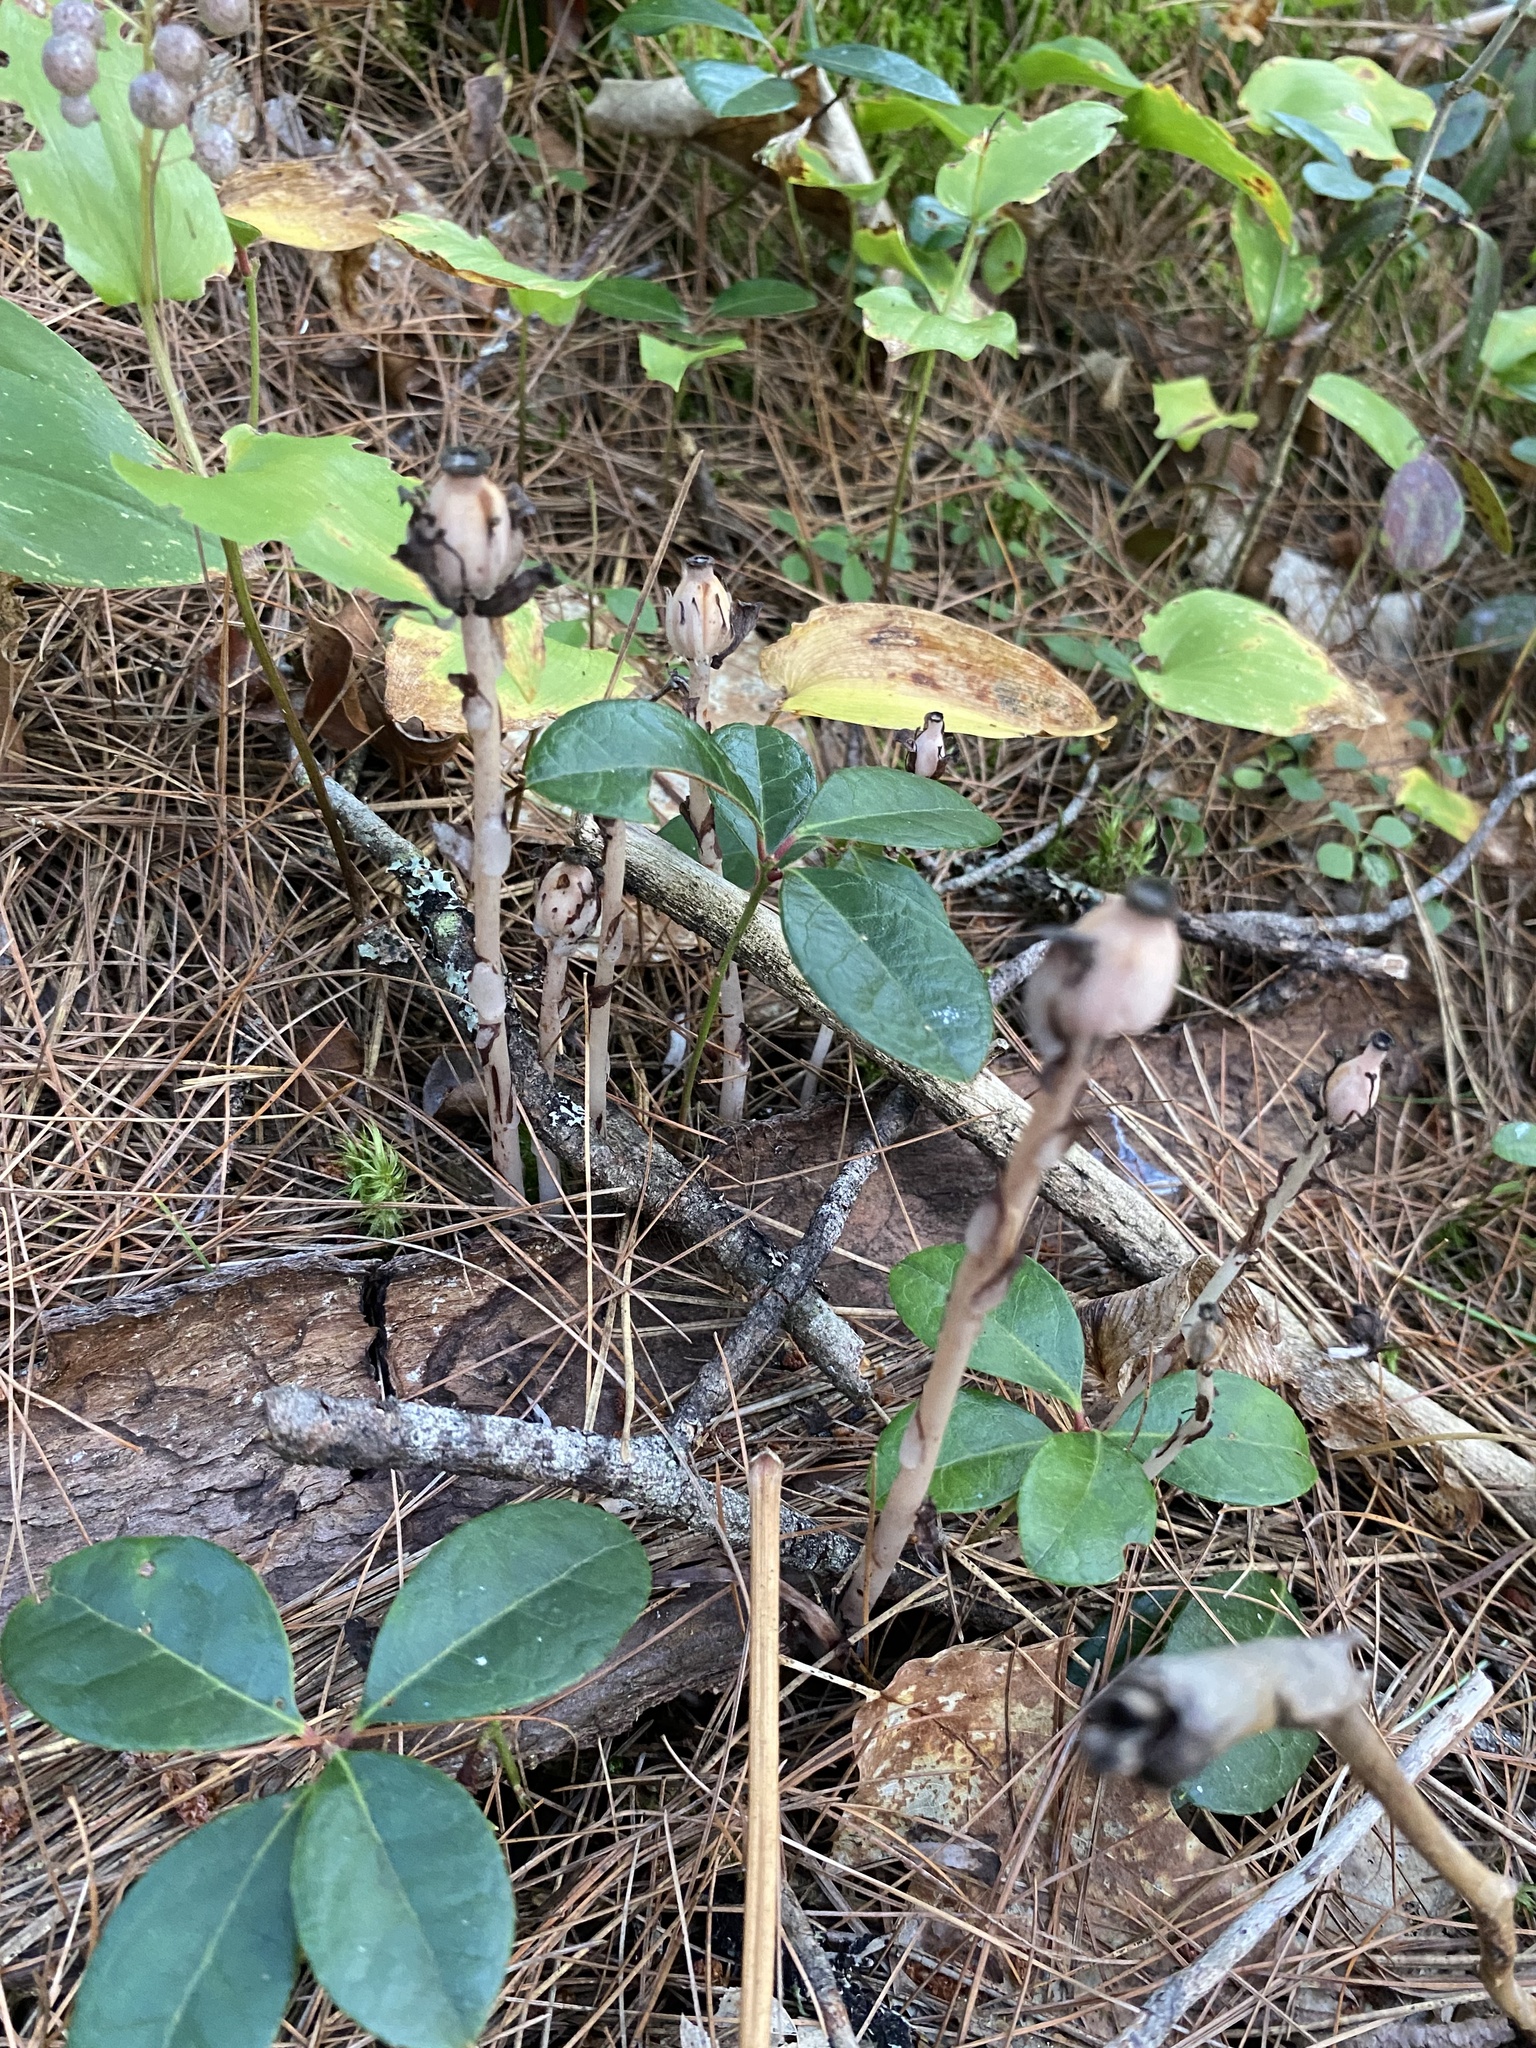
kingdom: Plantae
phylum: Tracheophyta
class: Magnoliopsida
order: Ericales
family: Ericaceae
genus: Monotropa
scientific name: Monotropa uniflora
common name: Convulsion root
